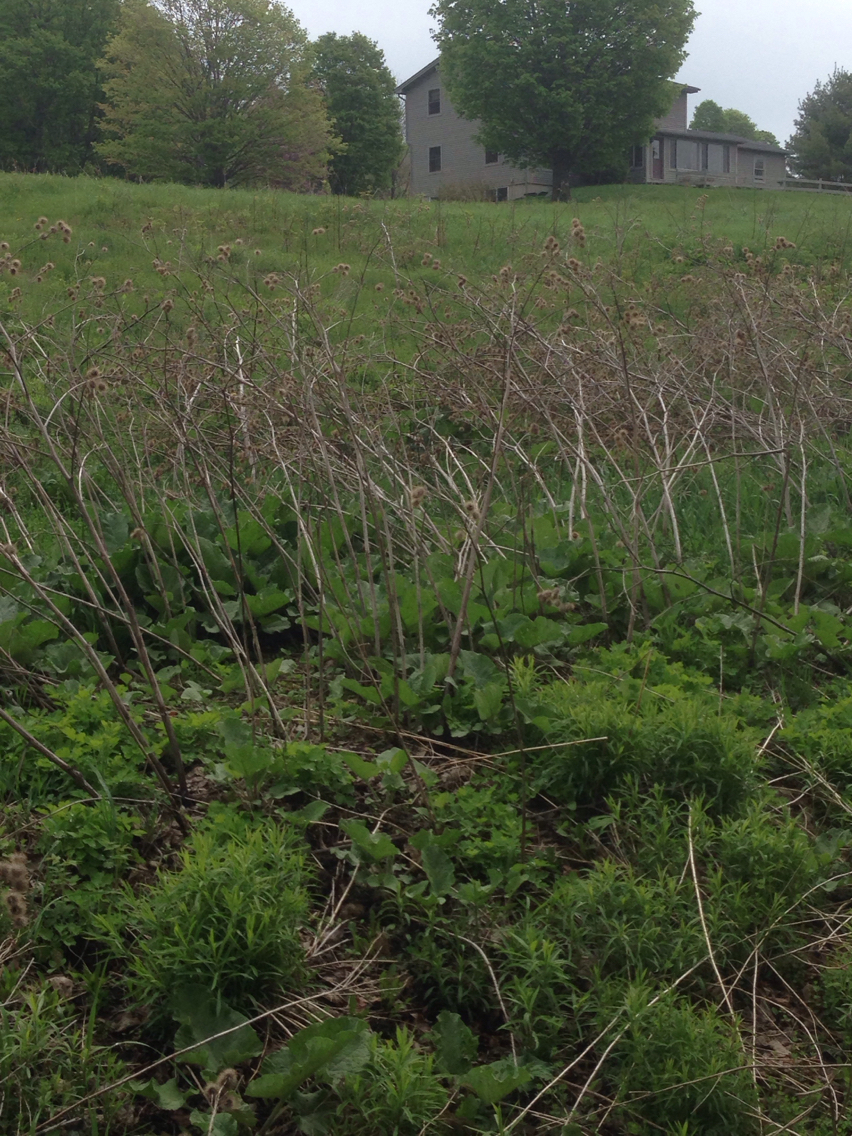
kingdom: Plantae
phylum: Tracheophyta
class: Magnoliopsida
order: Asterales
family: Asteraceae
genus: Arctium
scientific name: Arctium lappa
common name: Greater burdock
